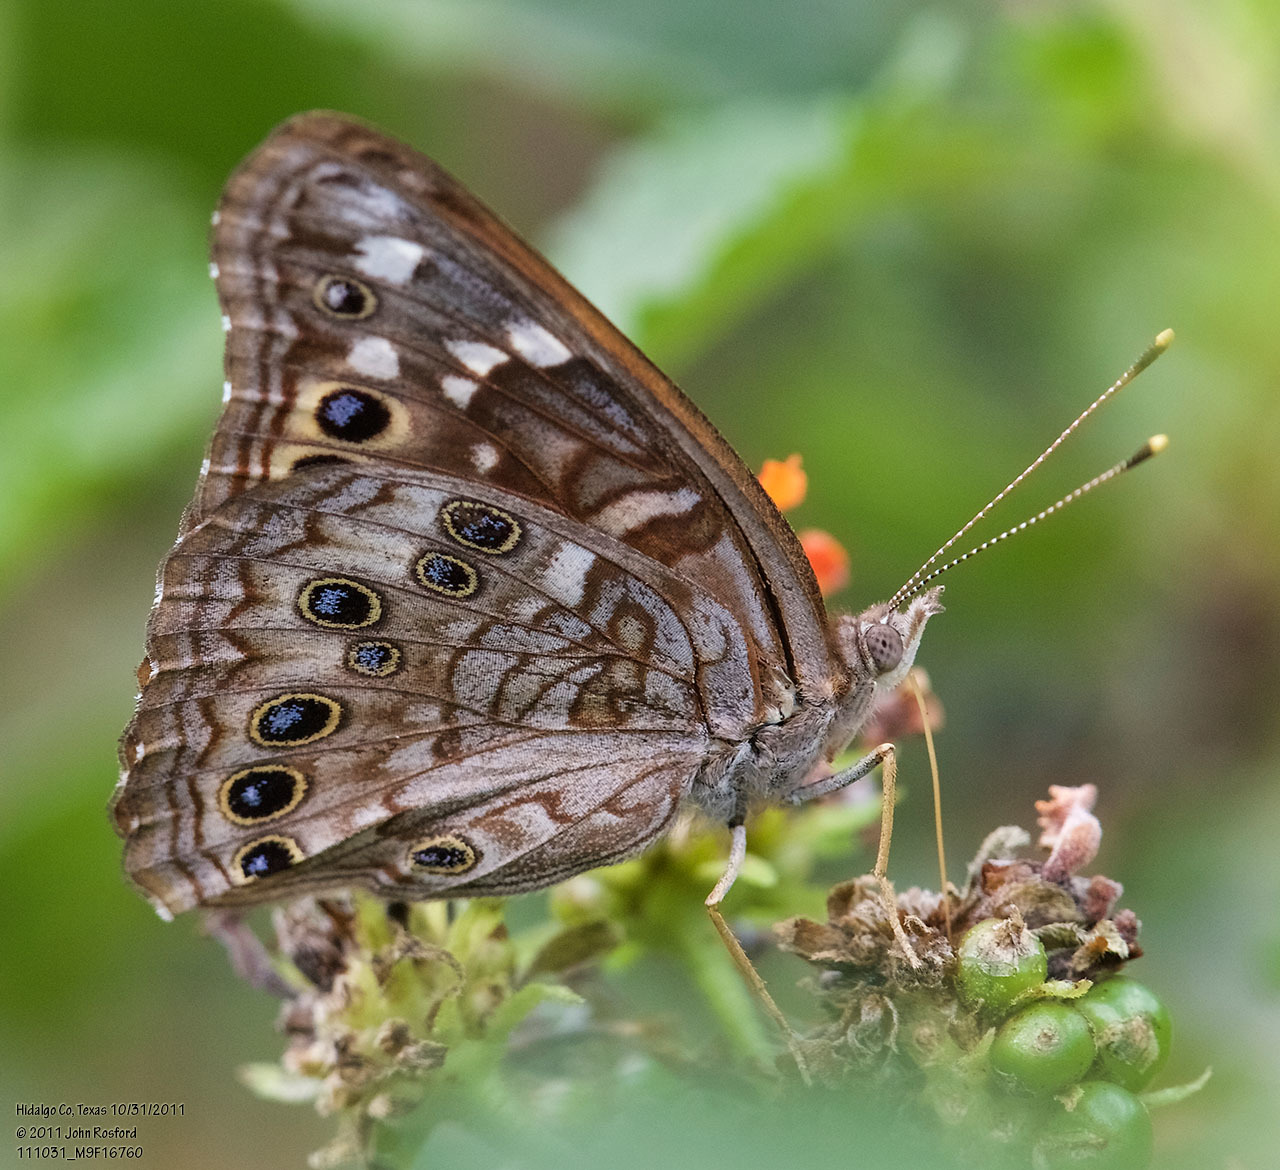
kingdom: Animalia
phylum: Arthropoda
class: Insecta
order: Lepidoptera
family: Nymphalidae
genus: Asterocampa
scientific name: Asterocampa leilia
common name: Empress leilia
